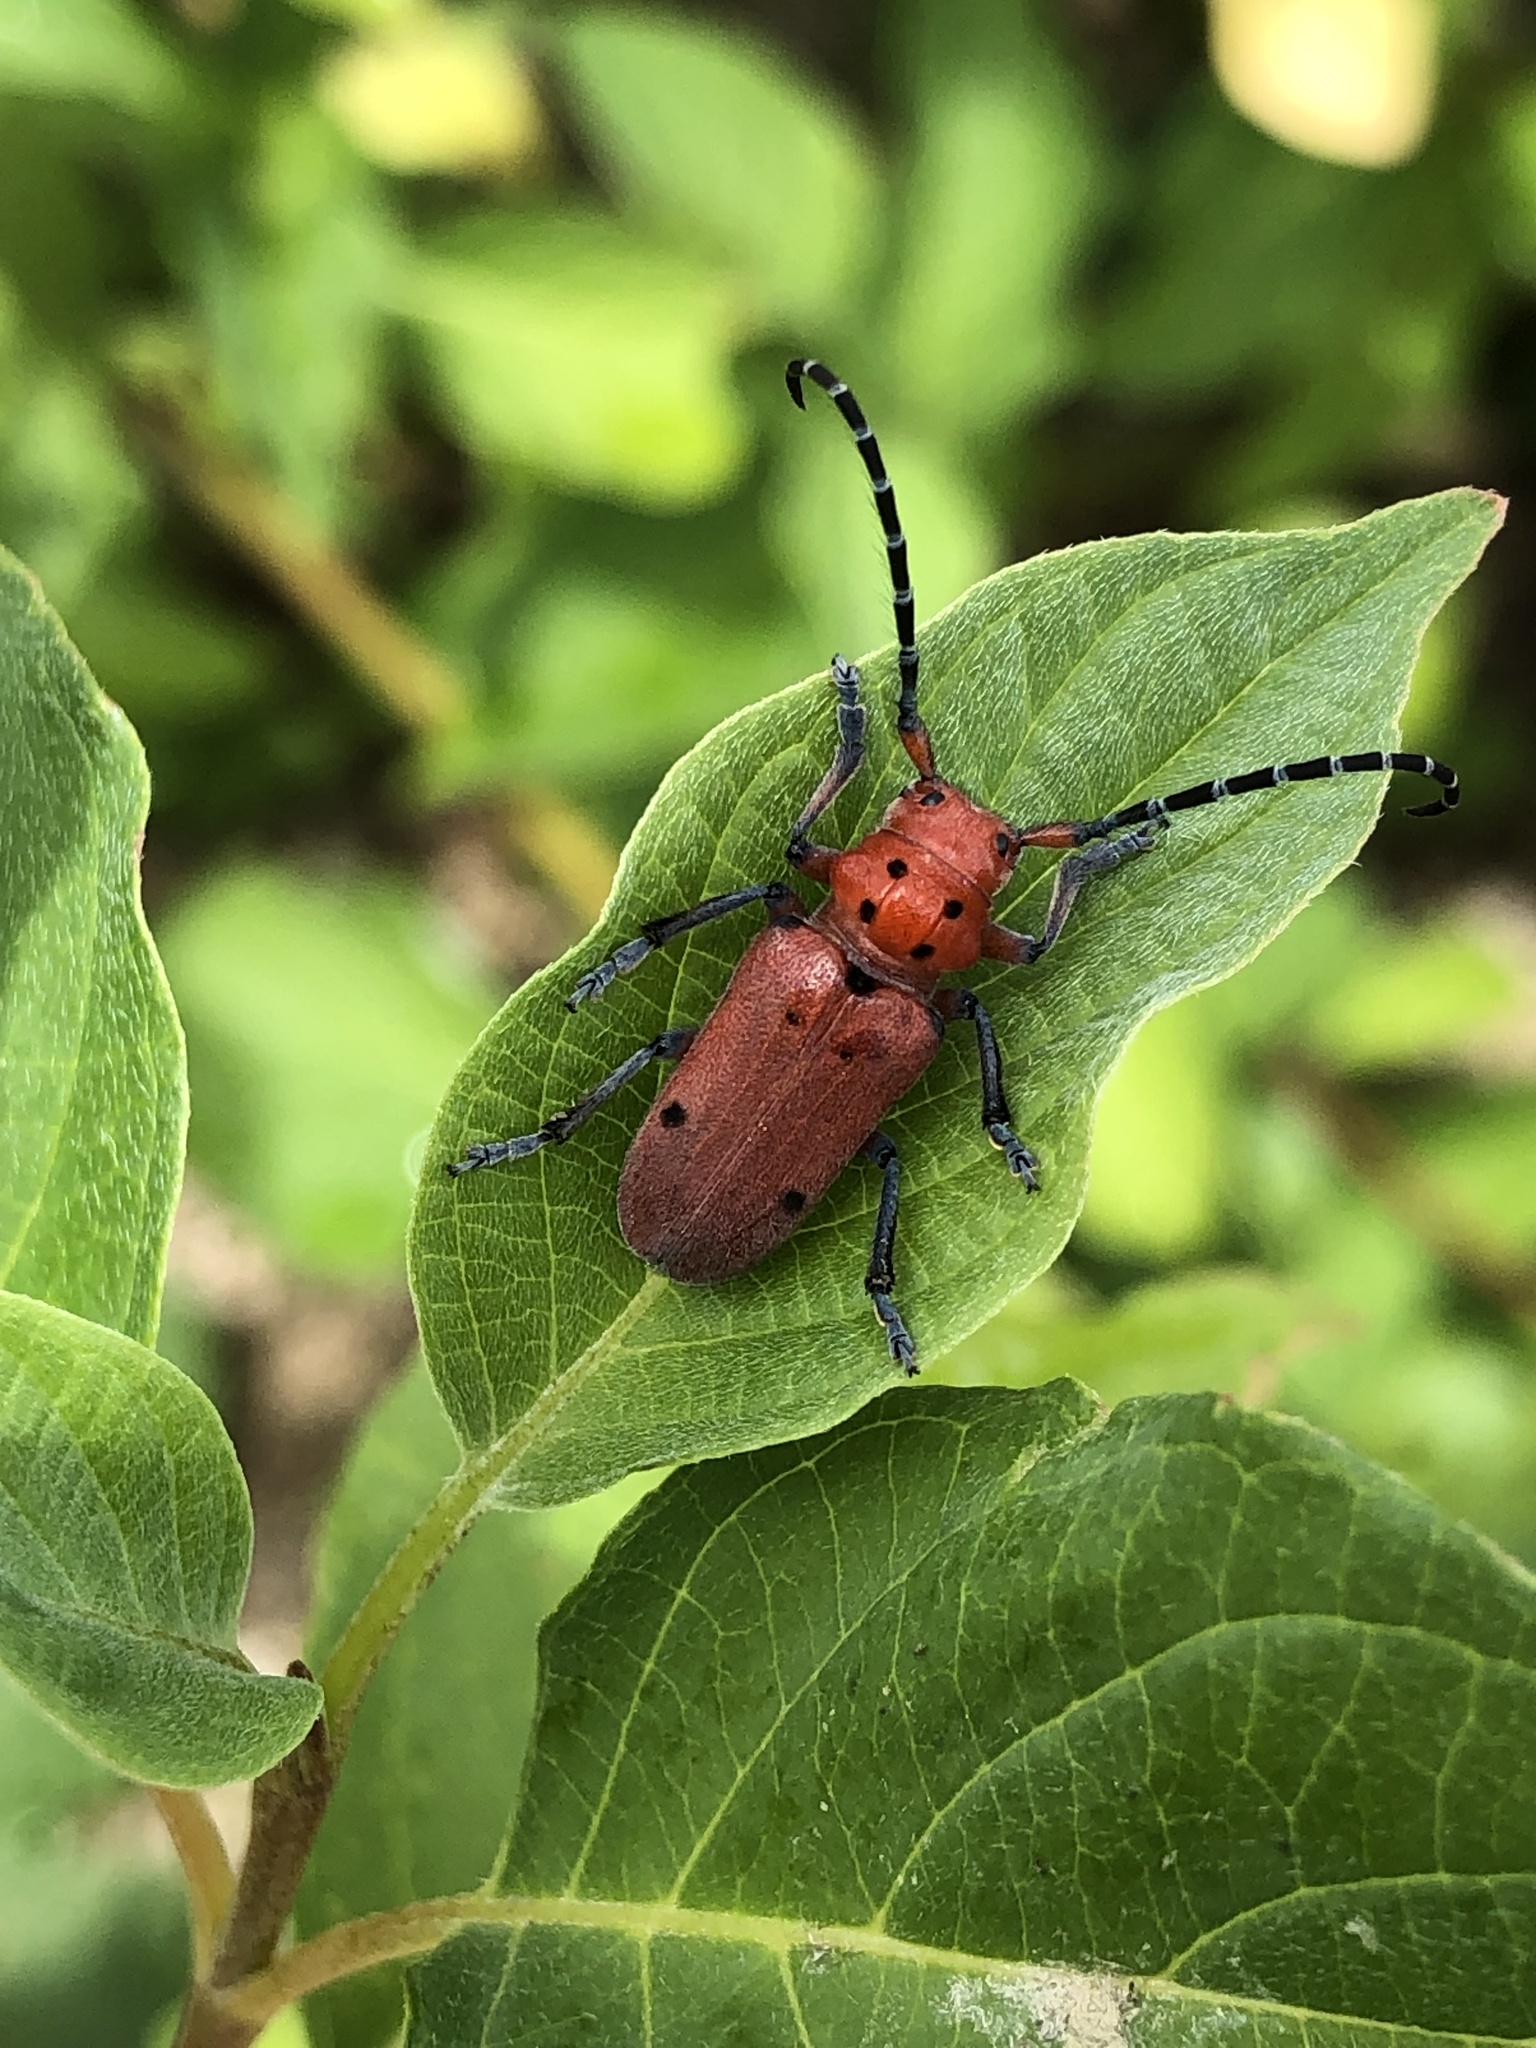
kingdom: Animalia
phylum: Arthropoda
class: Insecta
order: Coleoptera
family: Cerambycidae
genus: Tetraopes
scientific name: Tetraopes femoratus
